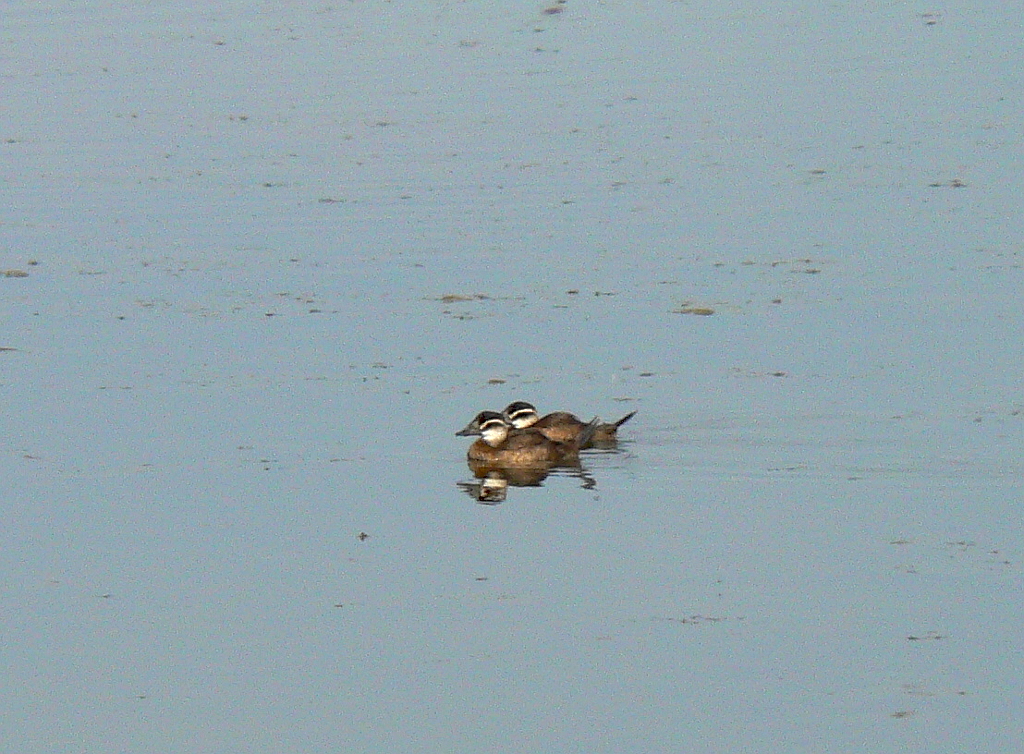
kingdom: Animalia
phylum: Chordata
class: Aves
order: Anseriformes
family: Anatidae
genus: Oxyura
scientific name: Oxyura leucocephala
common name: White-headed duck
